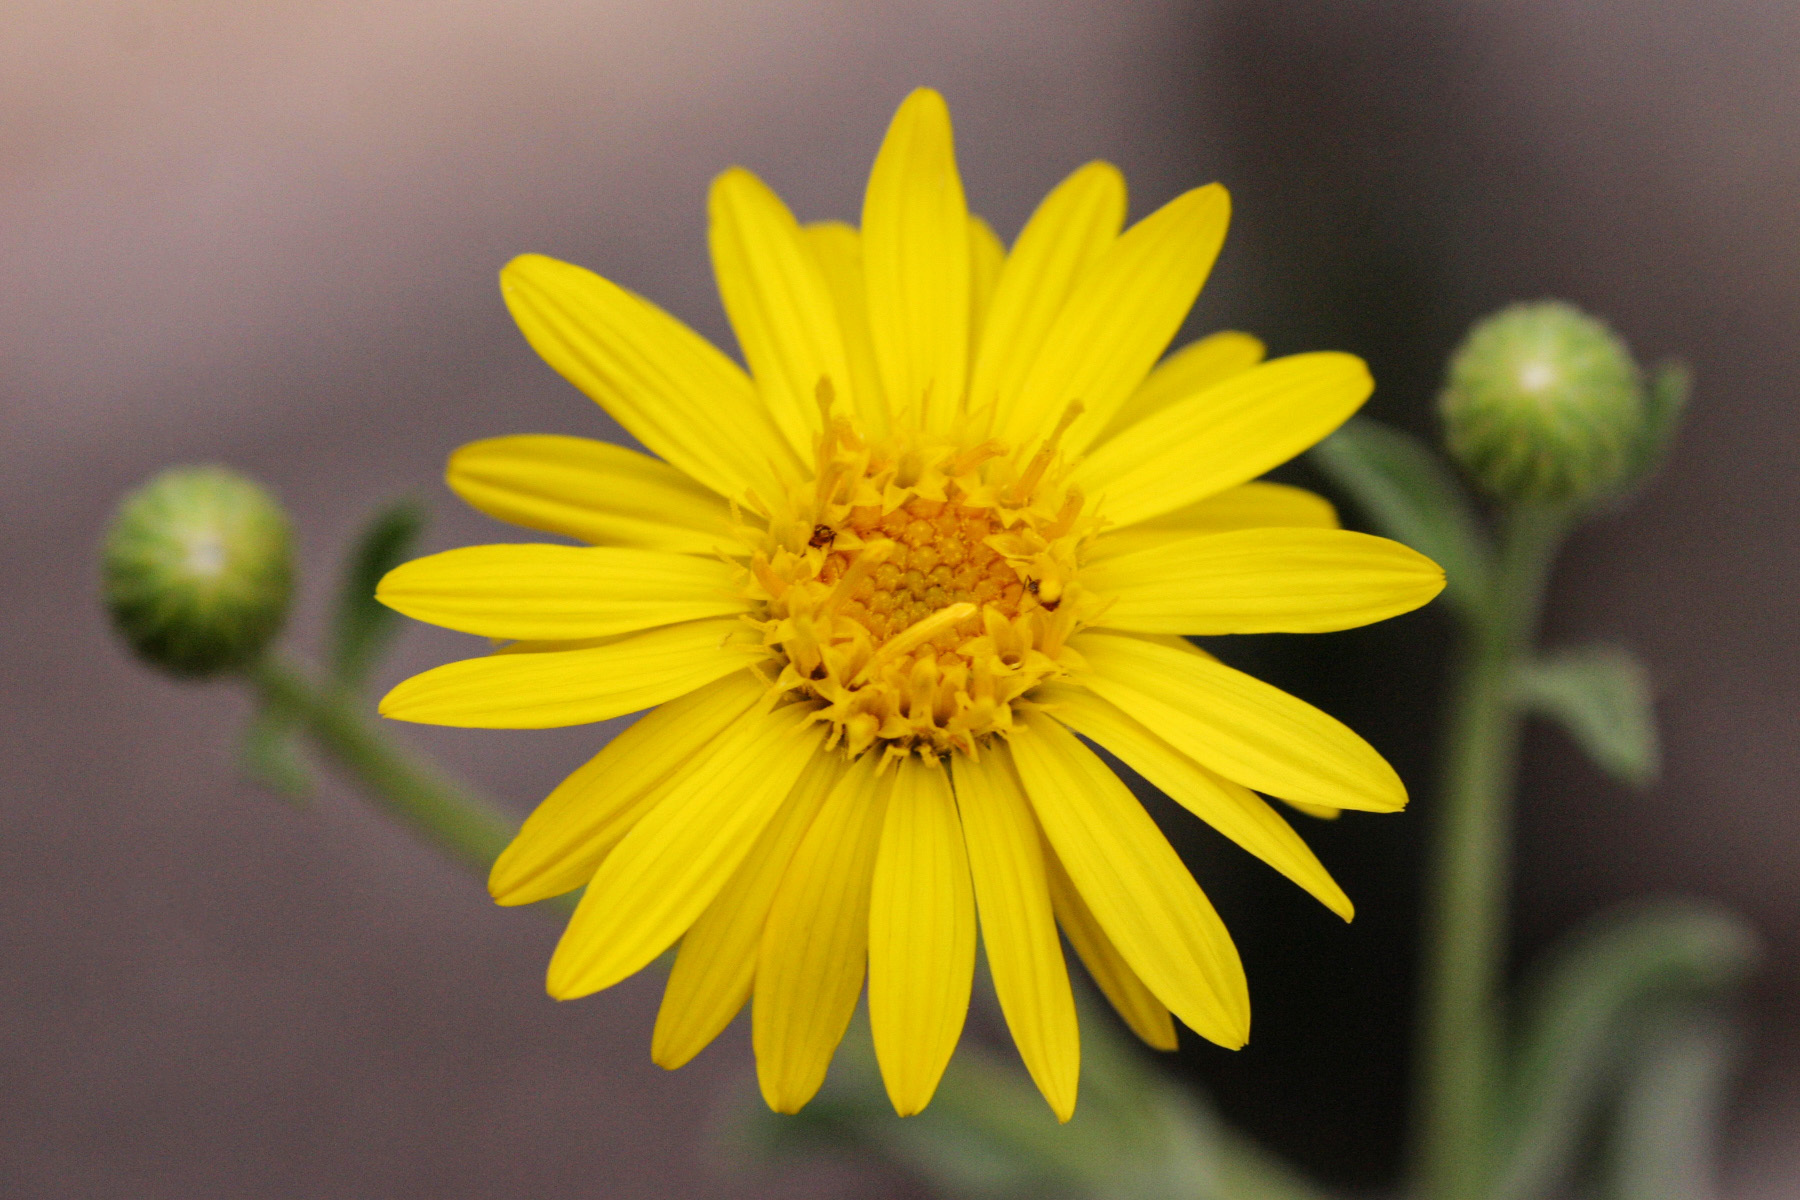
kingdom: Plantae
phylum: Tracheophyta
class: Magnoliopsida
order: Asterales
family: Asteraceae
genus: Heterotheca
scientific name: Heterotheca zionensis
